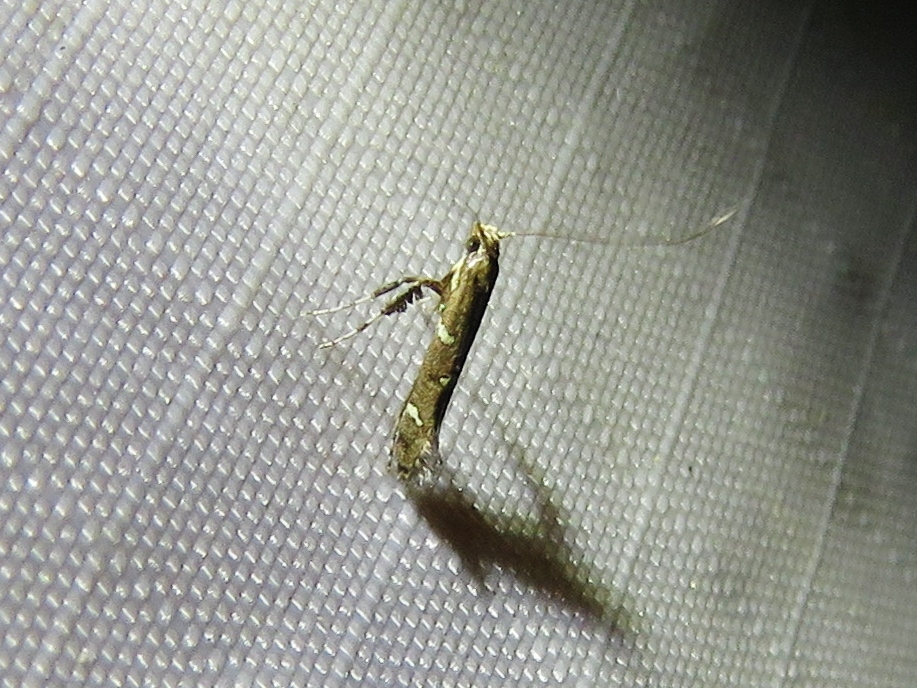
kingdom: Animalia
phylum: Arthropoda
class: Insecta
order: Lepidoptera
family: Gracillariidae
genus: Caloptilia
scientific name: Caloptilia triadicae
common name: Tallow leaf roller
